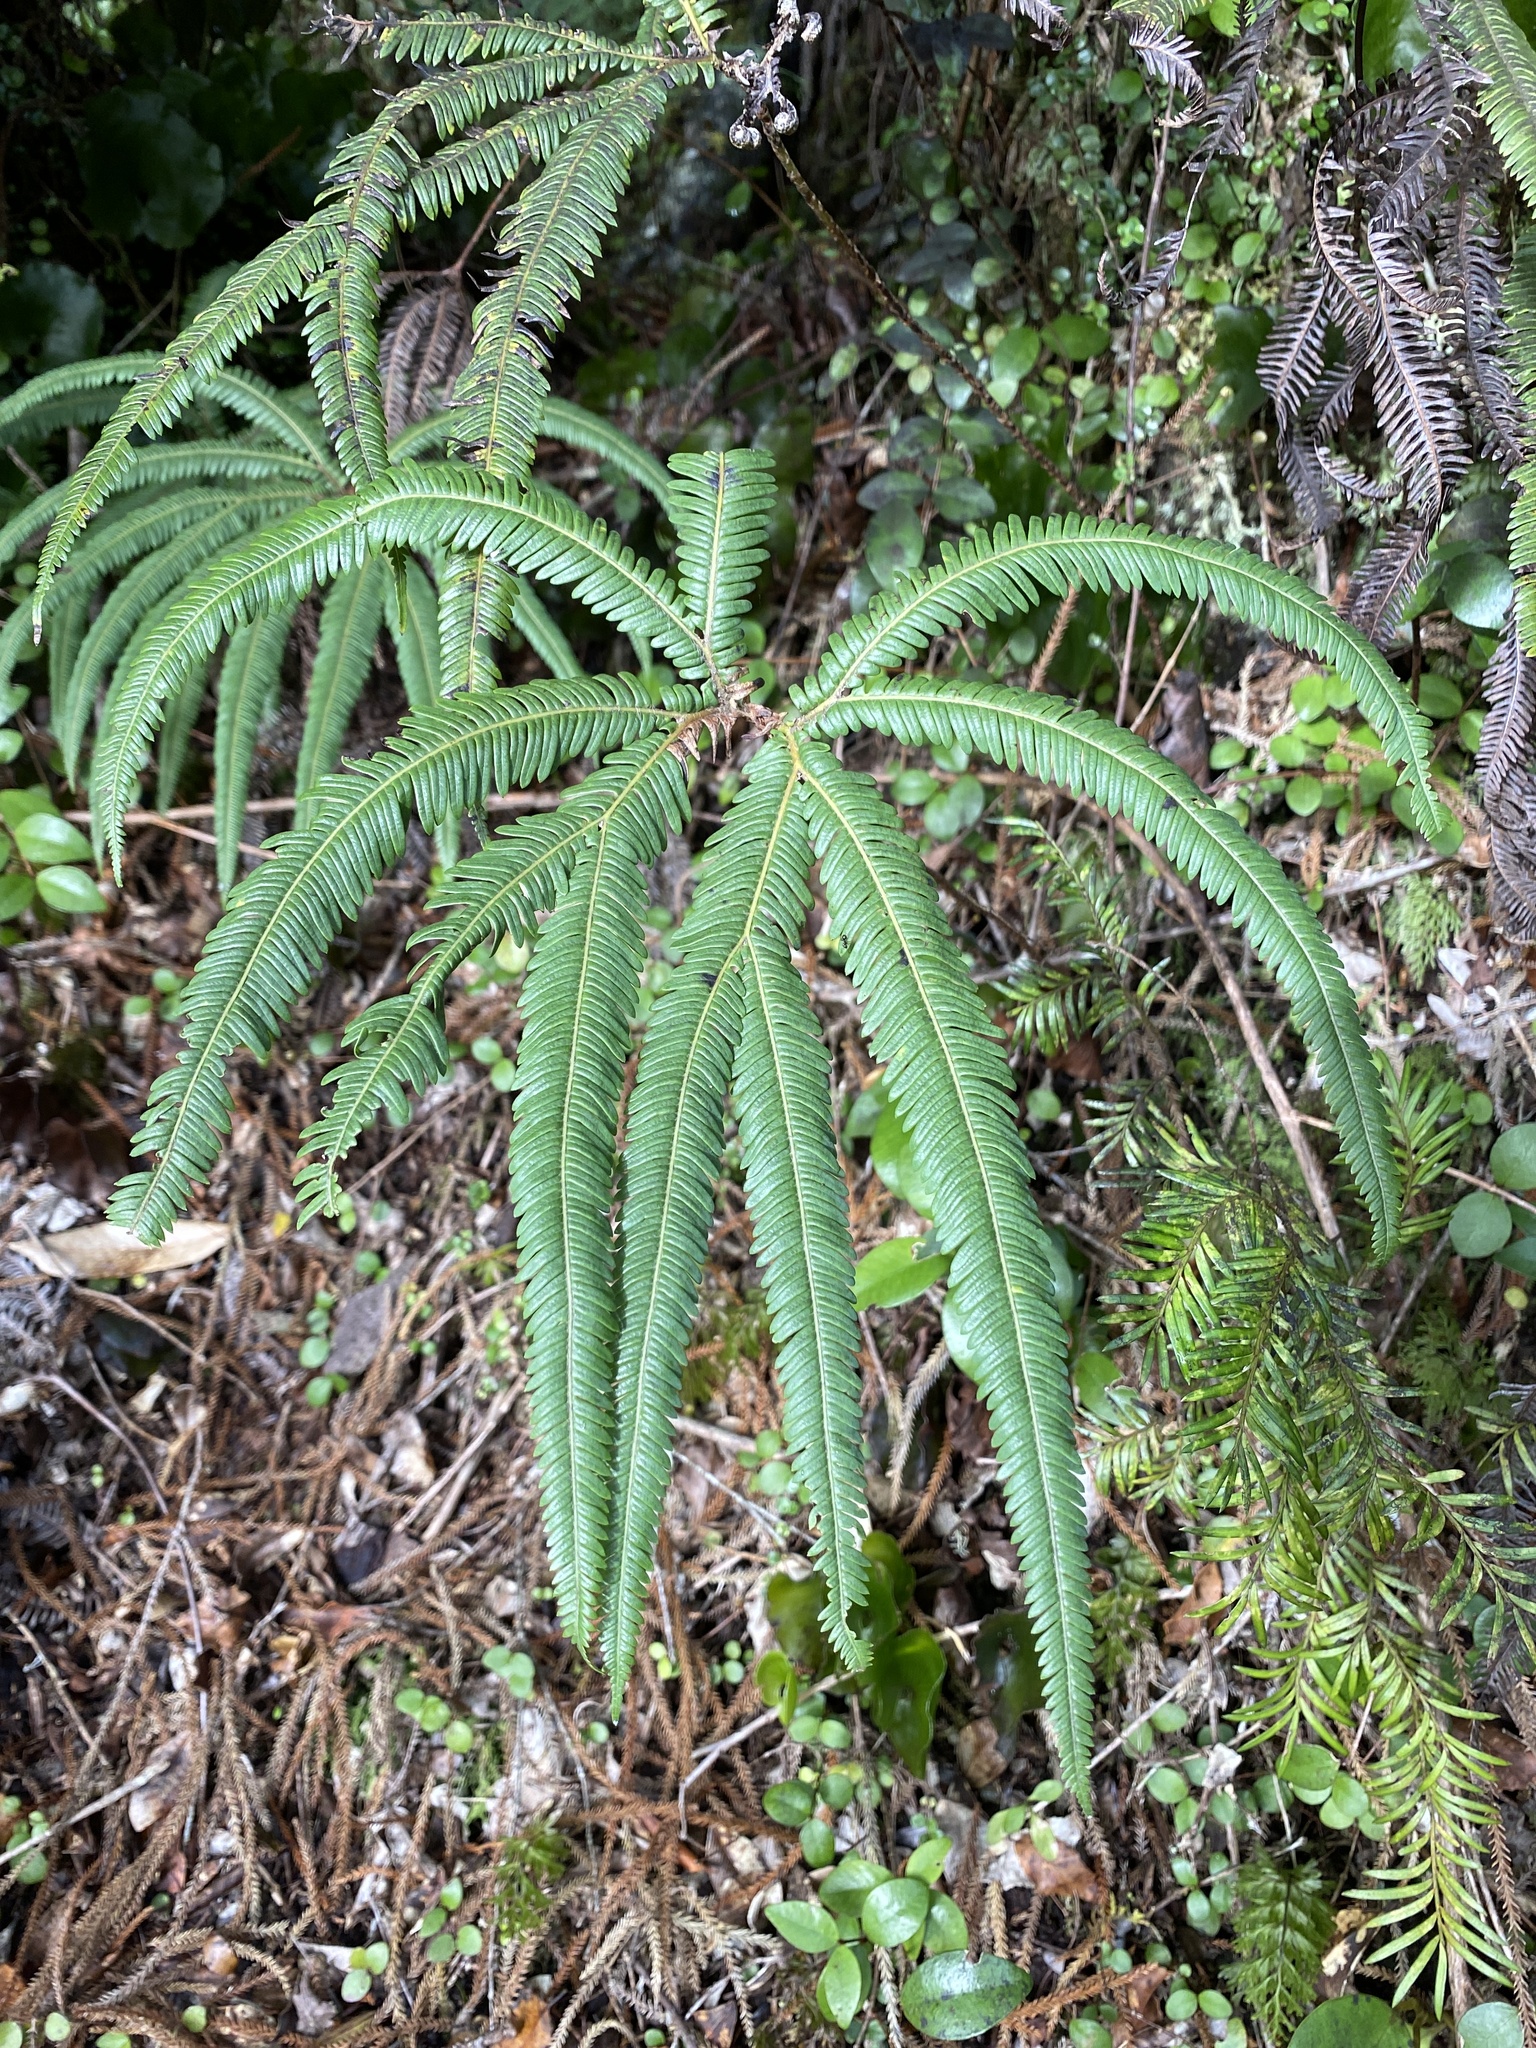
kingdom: Plantae
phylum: Tracheophyta
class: Polypodiopsida
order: Gleicheniales
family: Gleicheniaceae
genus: Sticherus
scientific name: Sticherus cunninghamii
